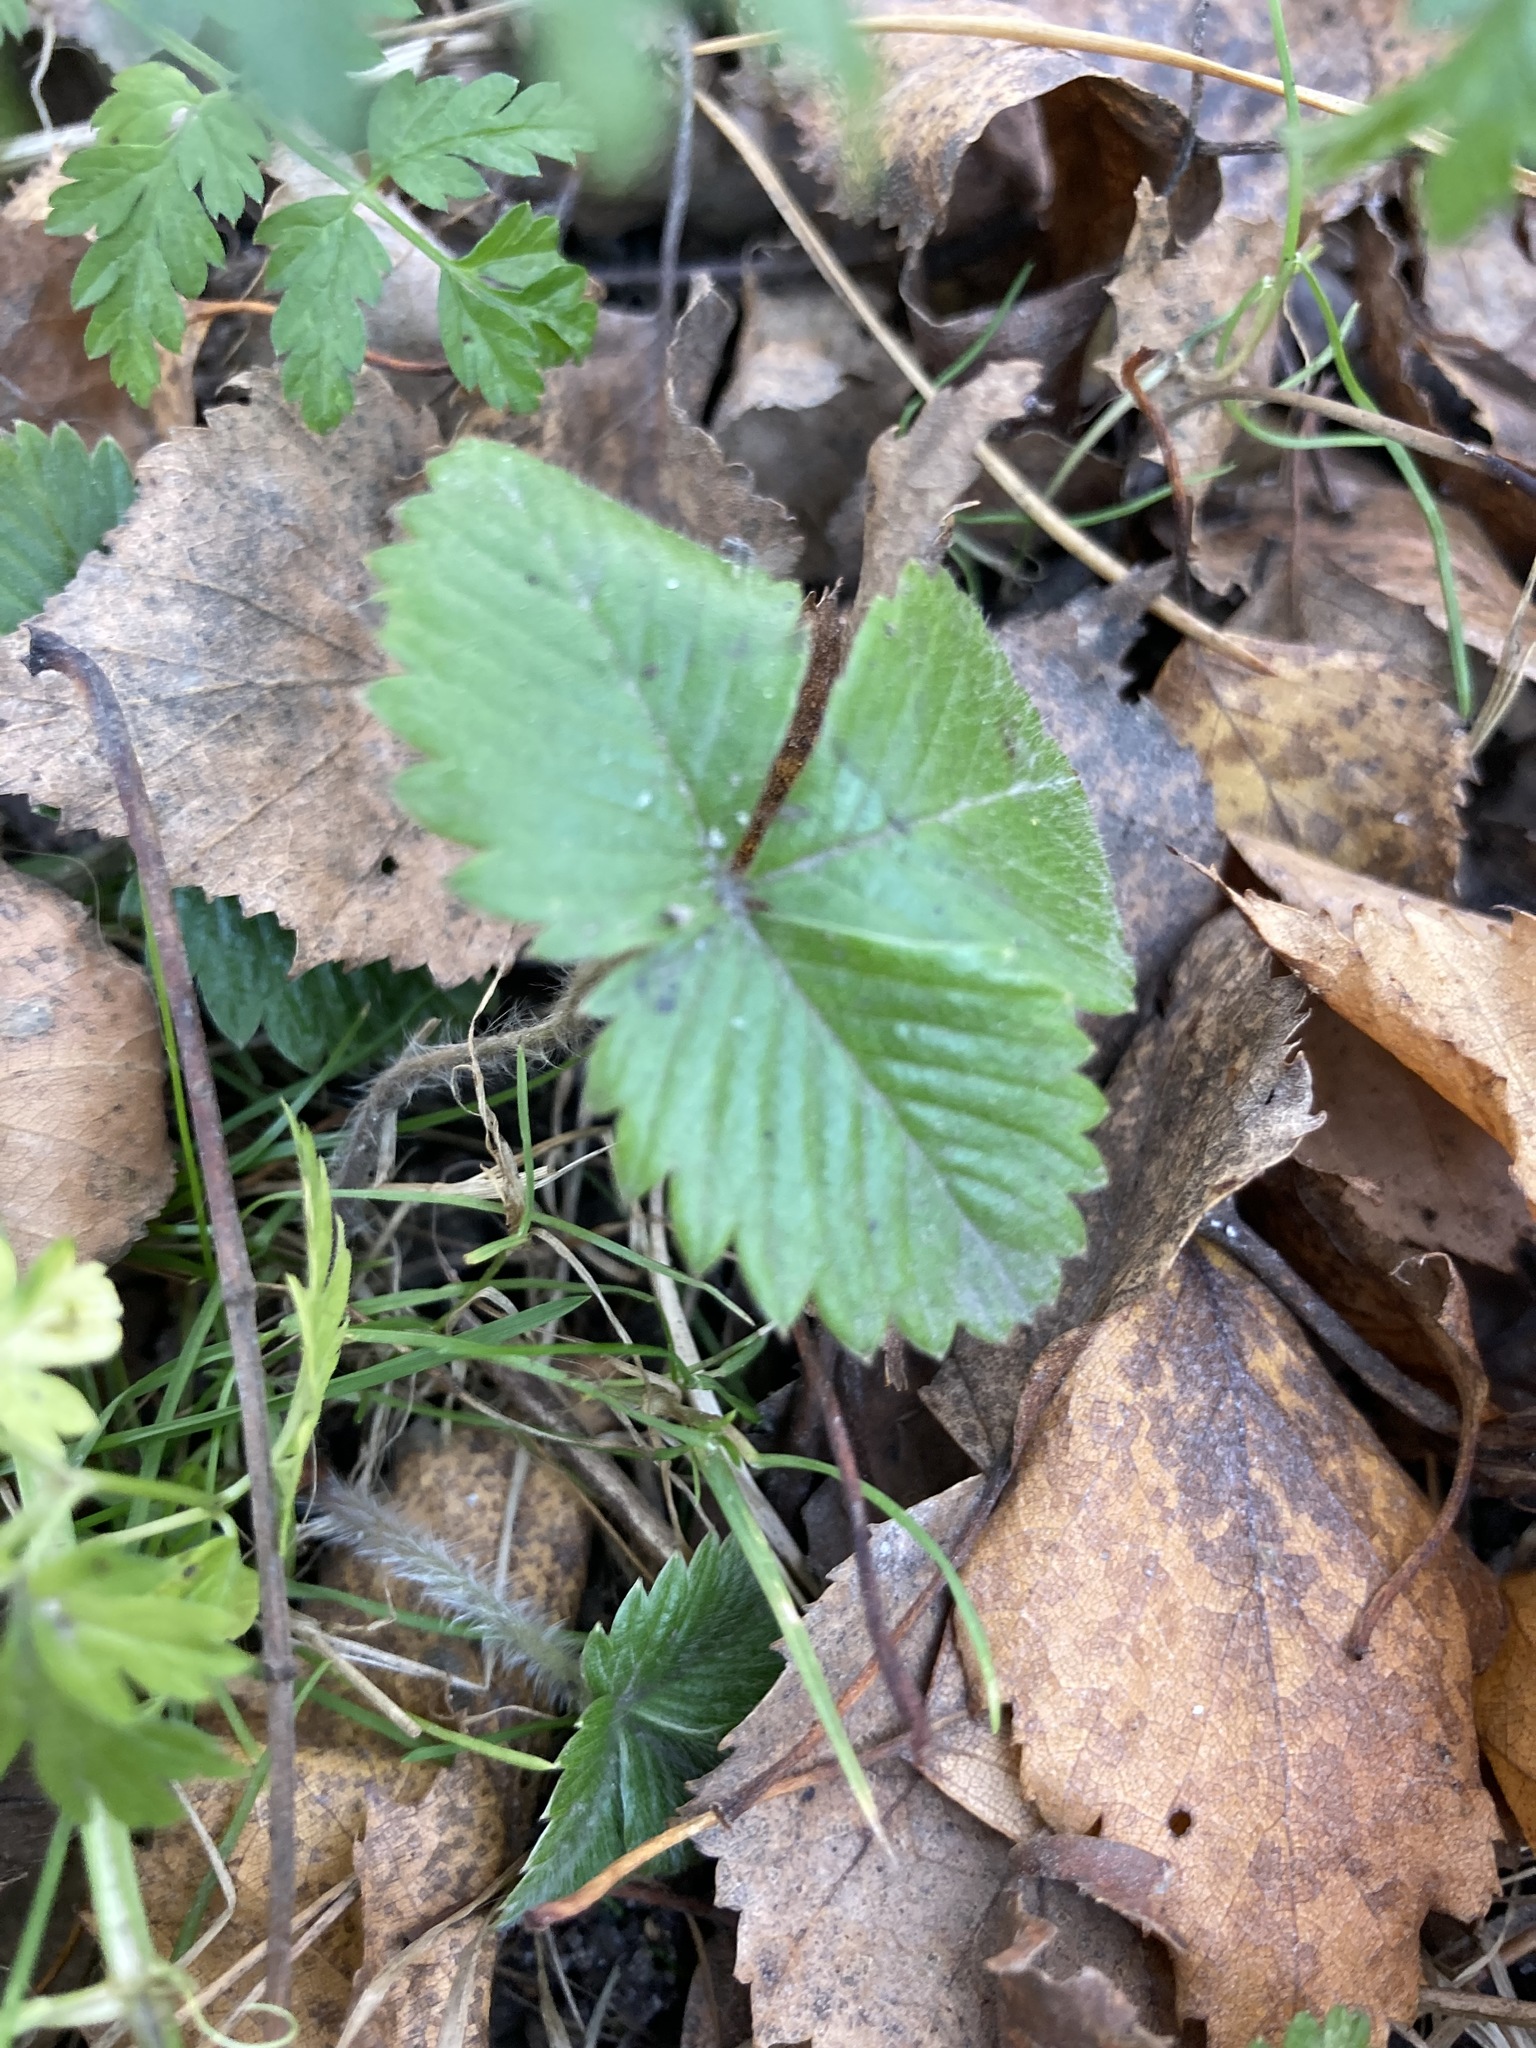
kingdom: Plantae
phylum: Tracheophyta
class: Magnoliopsida
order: Rosales
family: Rosaceae
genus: Fragaria
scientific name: Fragaria vesca
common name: Wild strawberry
